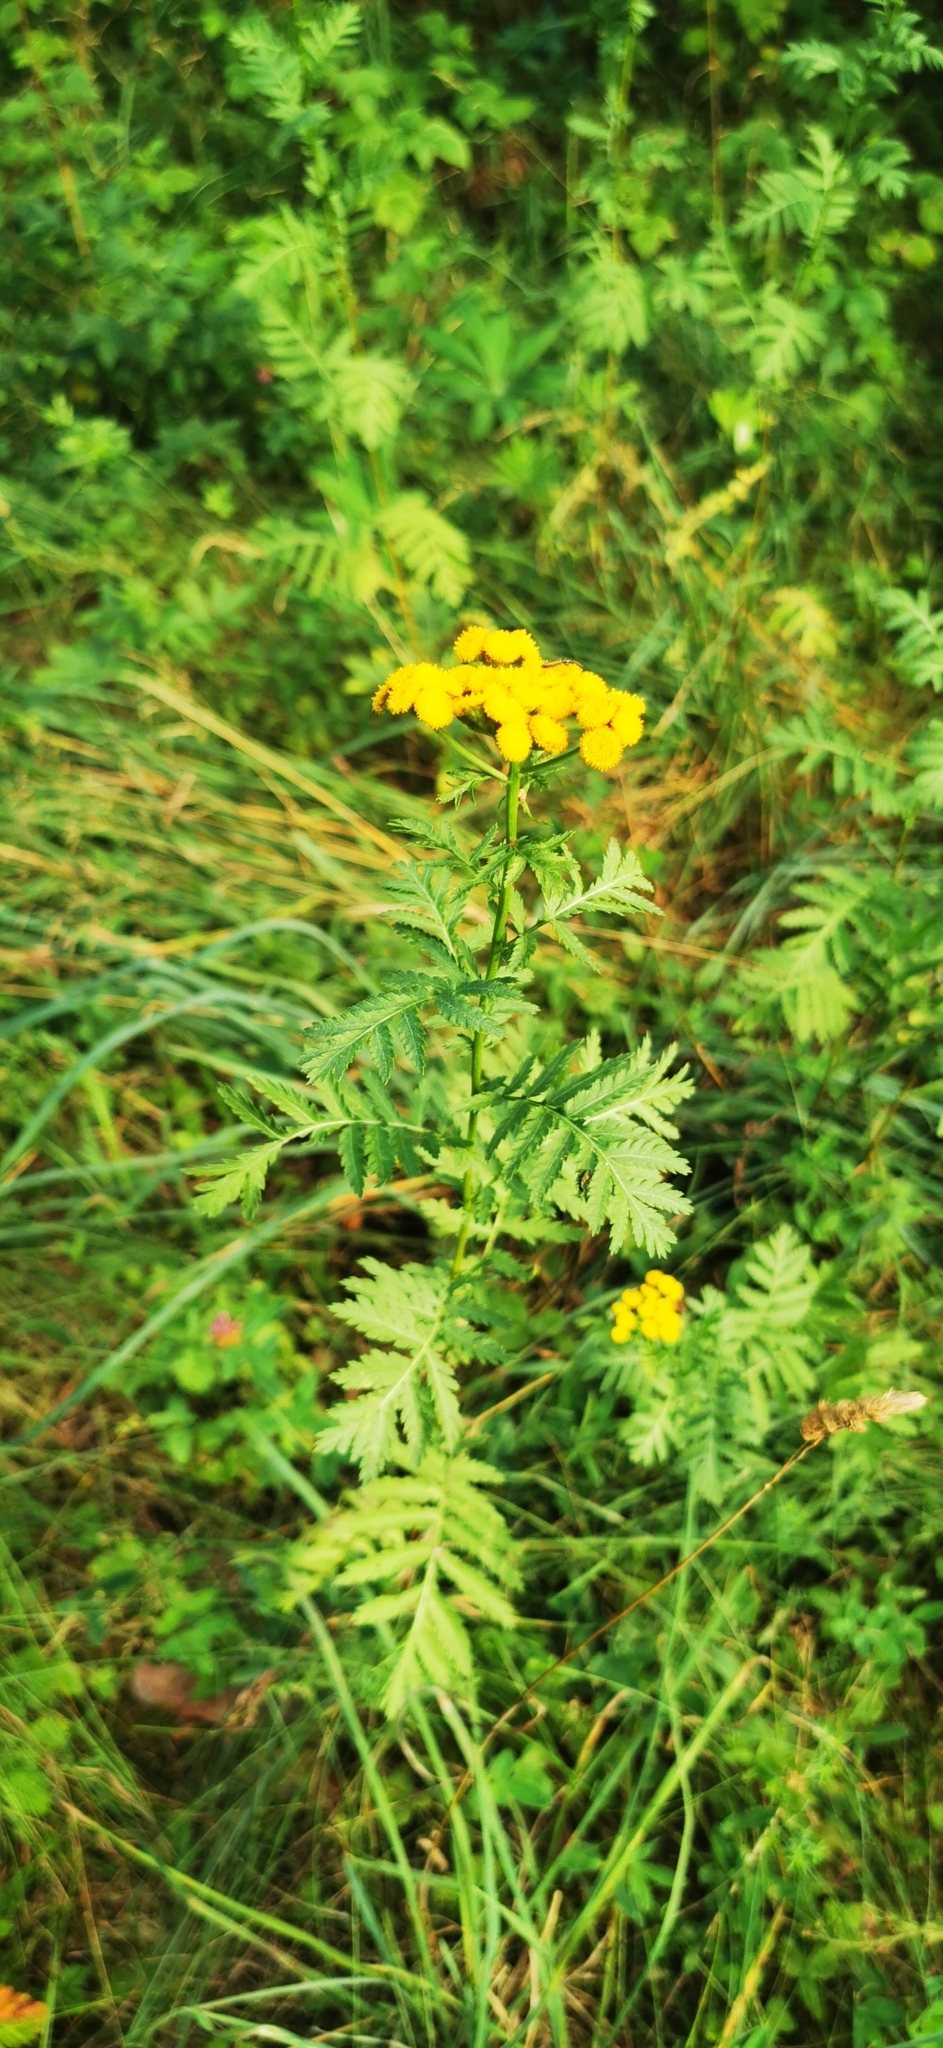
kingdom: Plantae
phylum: Tracheophyta
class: Magnoliopsida
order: Asterales
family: Asteraceae
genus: Tanacetum
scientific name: Tanacetum vulgare
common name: Common tansy
